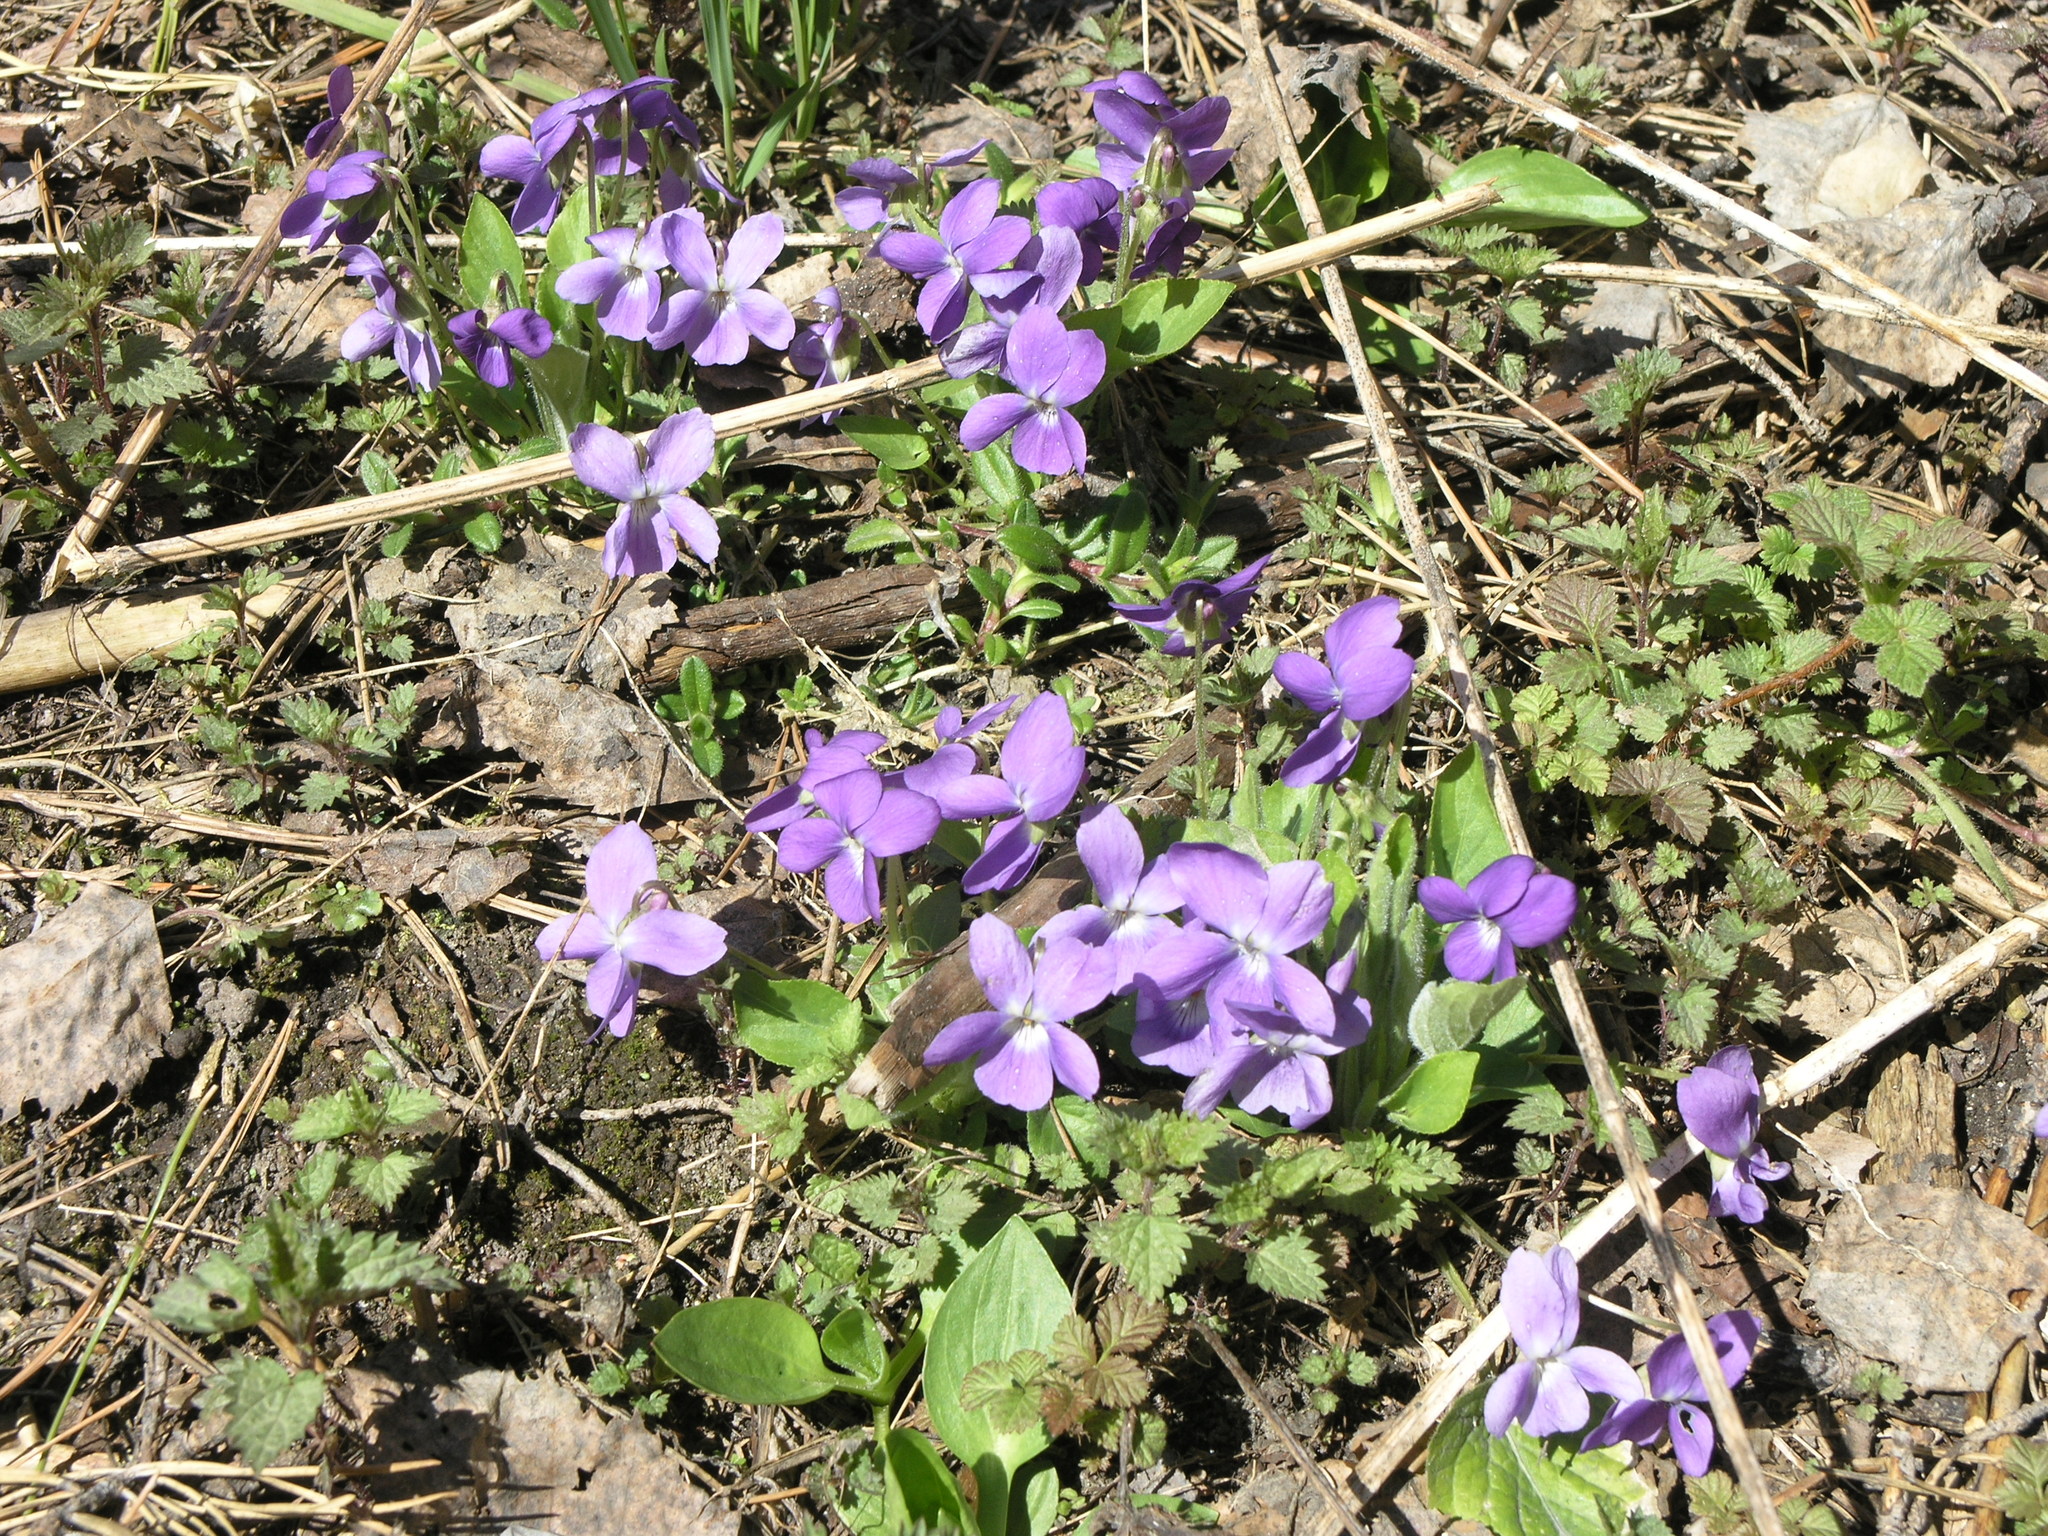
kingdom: Plantae
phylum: Tracheophyta
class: Magnoliopsida
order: Malpighiales
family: Violaceae
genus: Viola
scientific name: Viola hirta
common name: Hairy violet
